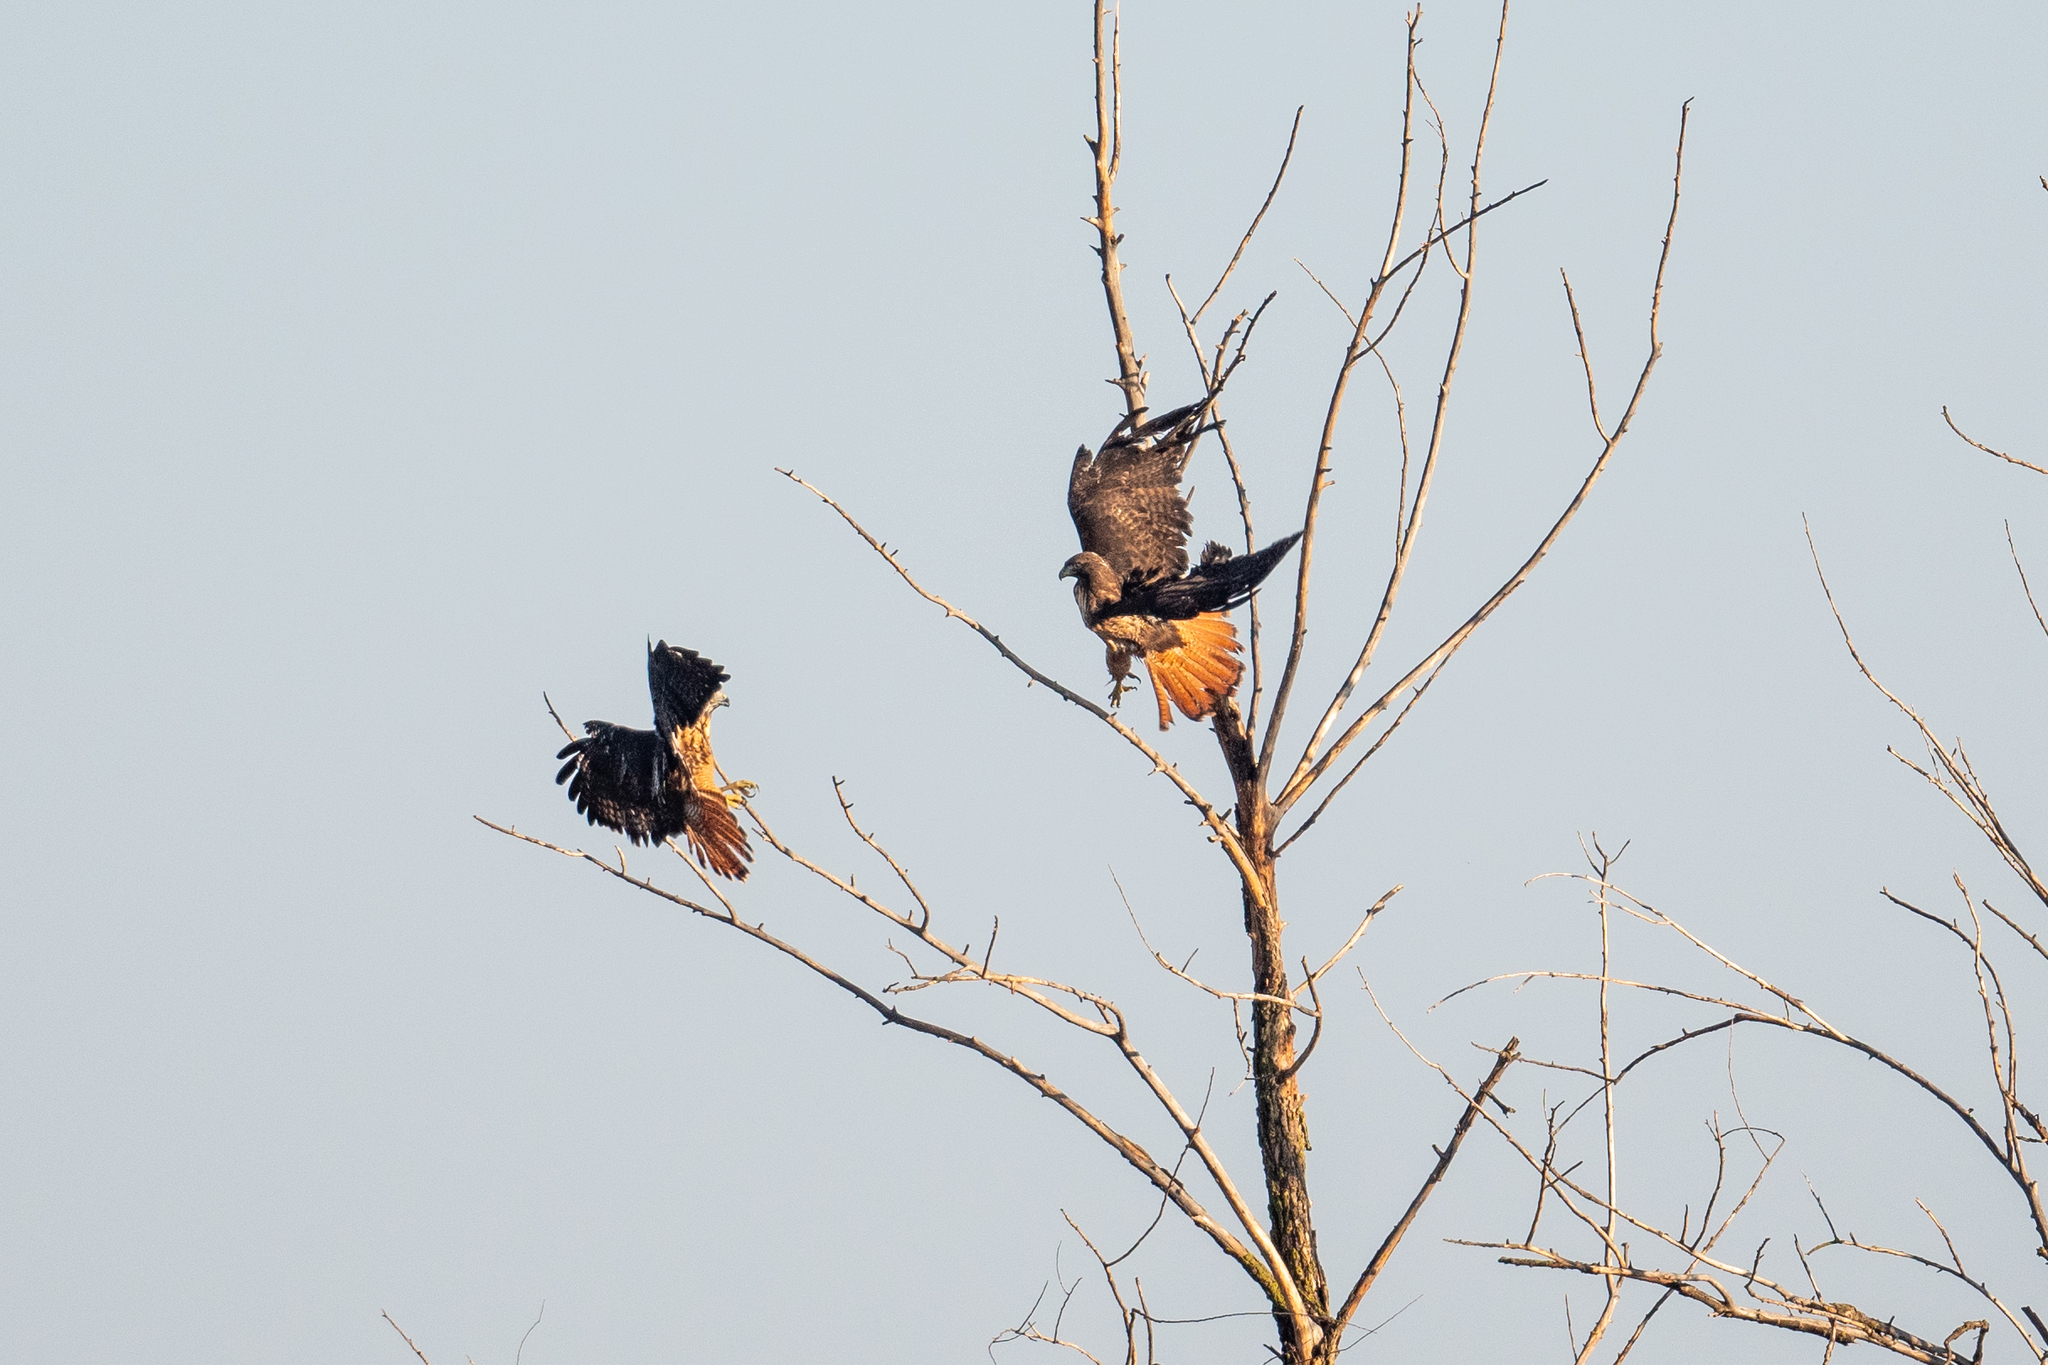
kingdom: Animalia
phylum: Chordata
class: Aves
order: Accipitriformes
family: Accipitridae
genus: Buteo
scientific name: Buteo jamaicensis
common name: Red-tailed hawk
